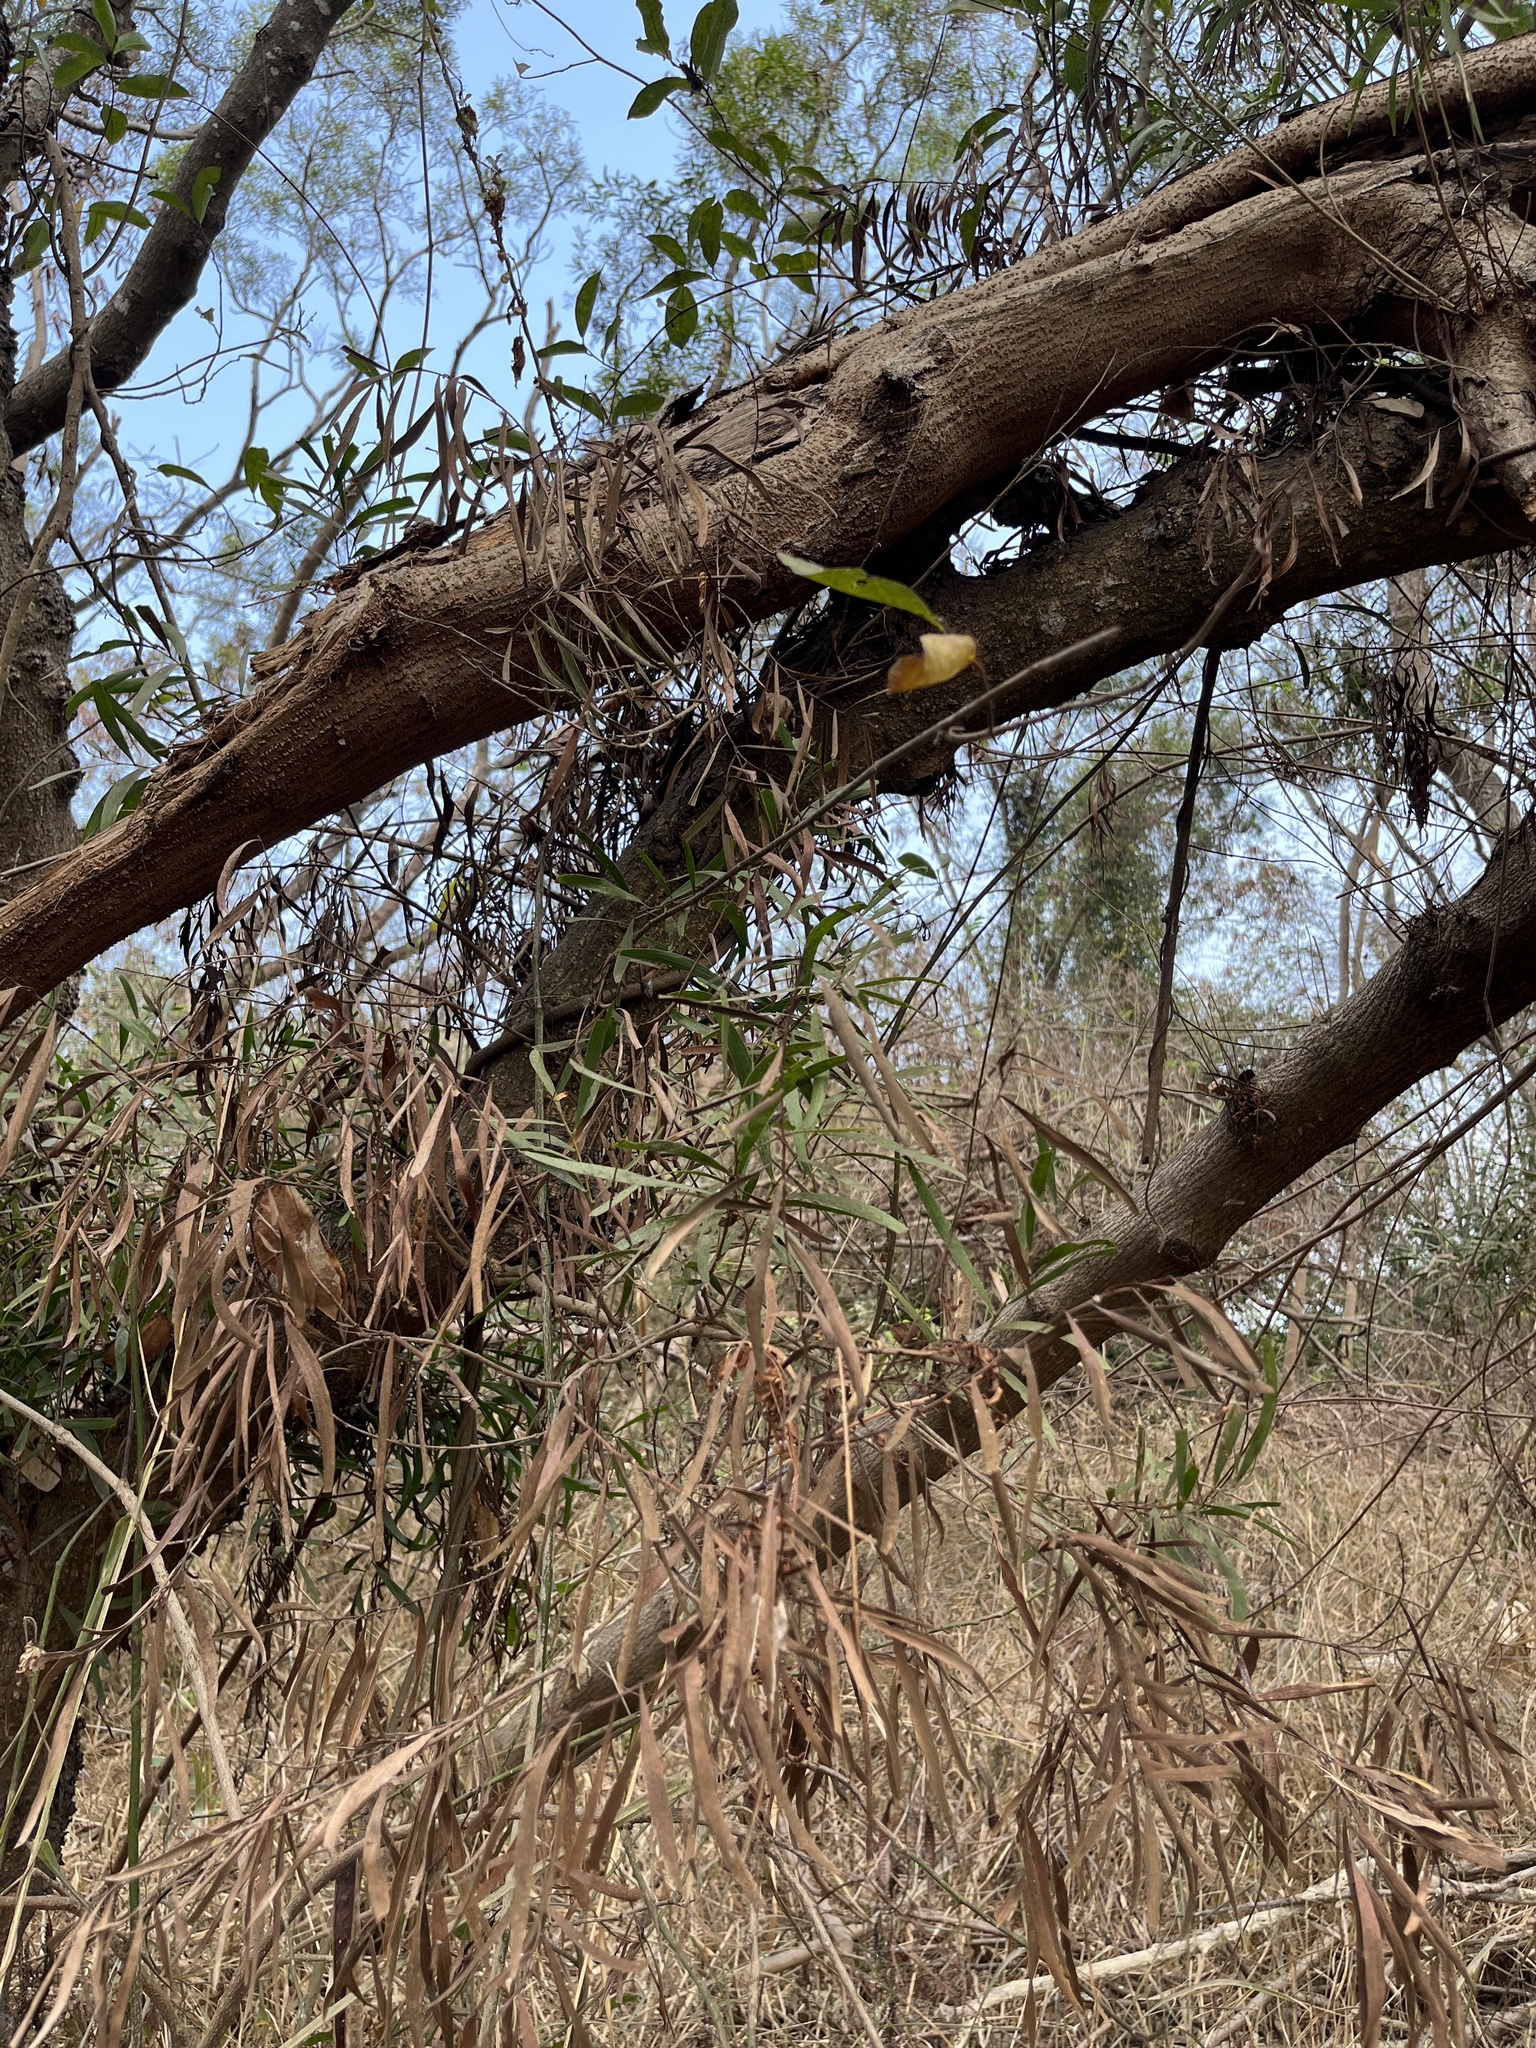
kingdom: Plantae
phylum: Tracheophyta
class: Magnoliopsida
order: Fabales
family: Fabaceae
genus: Acacia
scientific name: Acacia confusa
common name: Formosan koa
